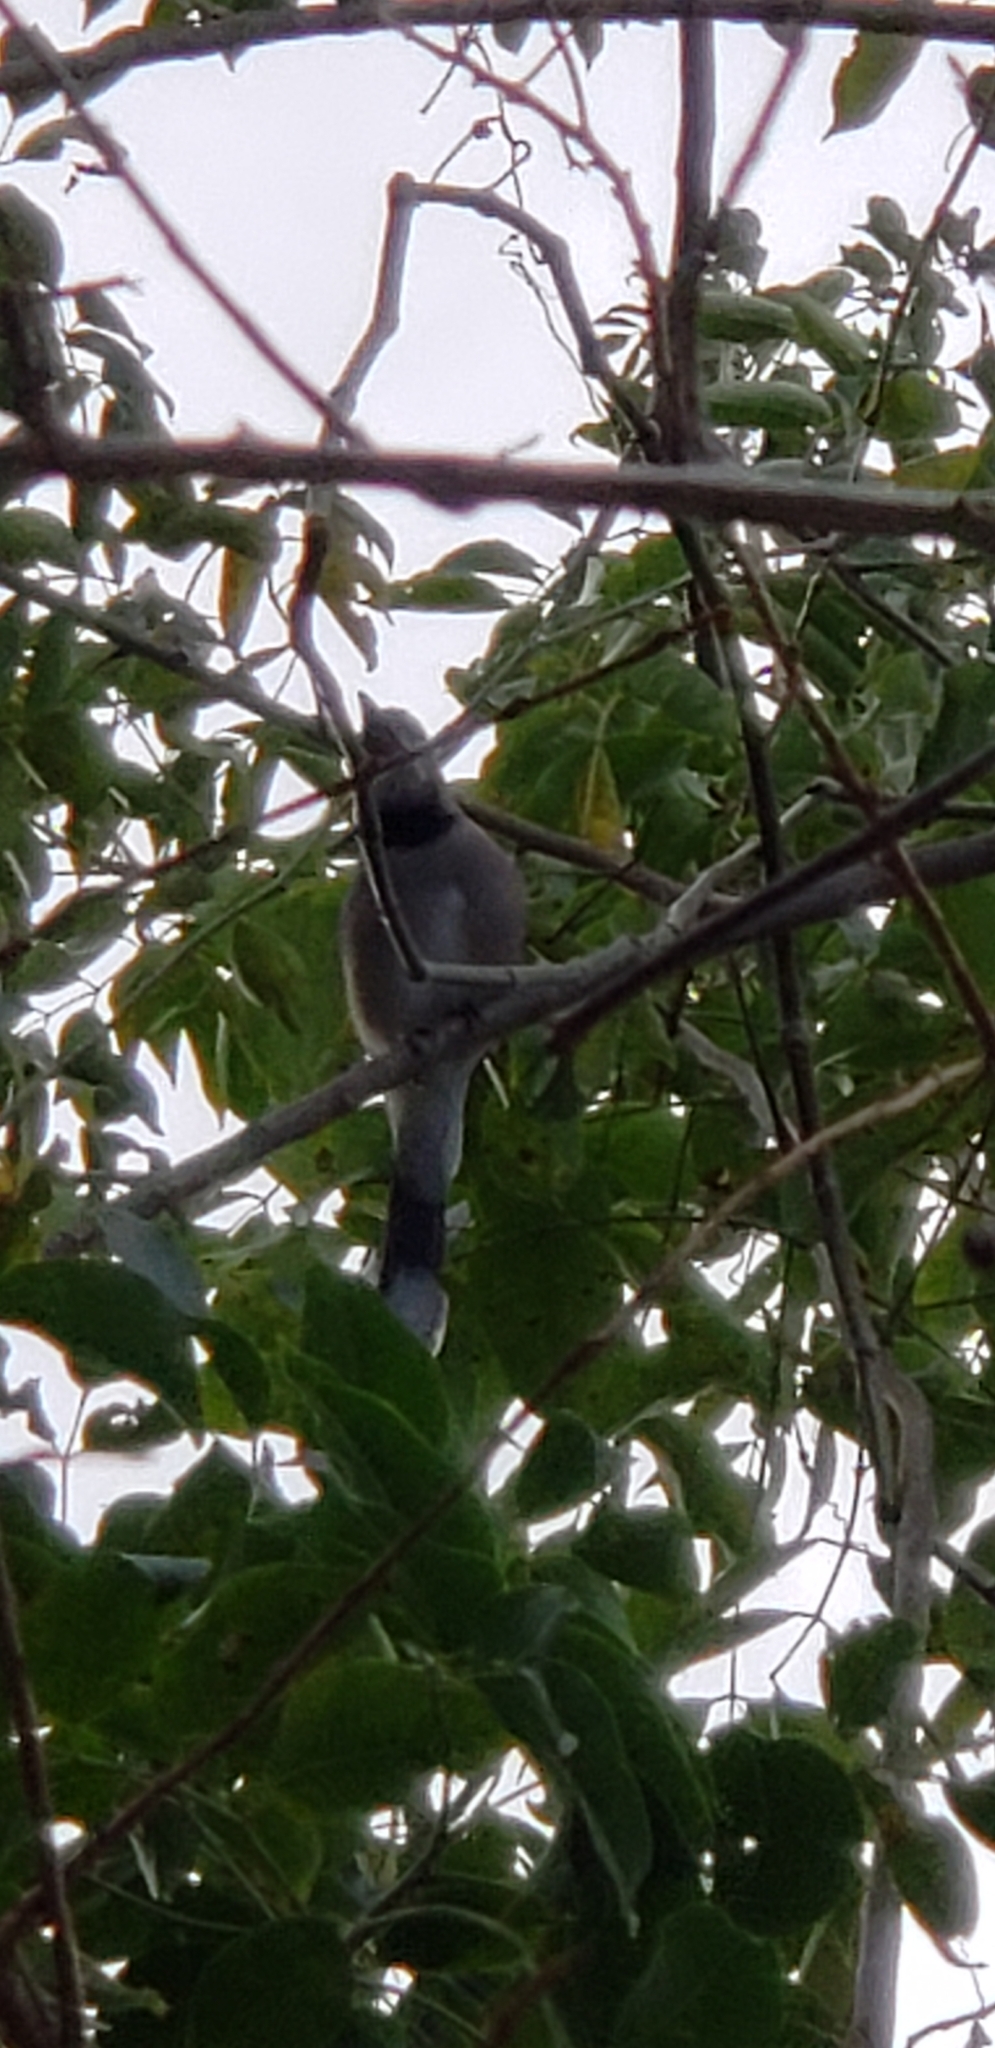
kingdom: Animalia
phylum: Chordata
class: Aves
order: Passeriformes
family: Corvidae
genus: Cyanocitta
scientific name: Cyanocitta cristata
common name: Blue jay
